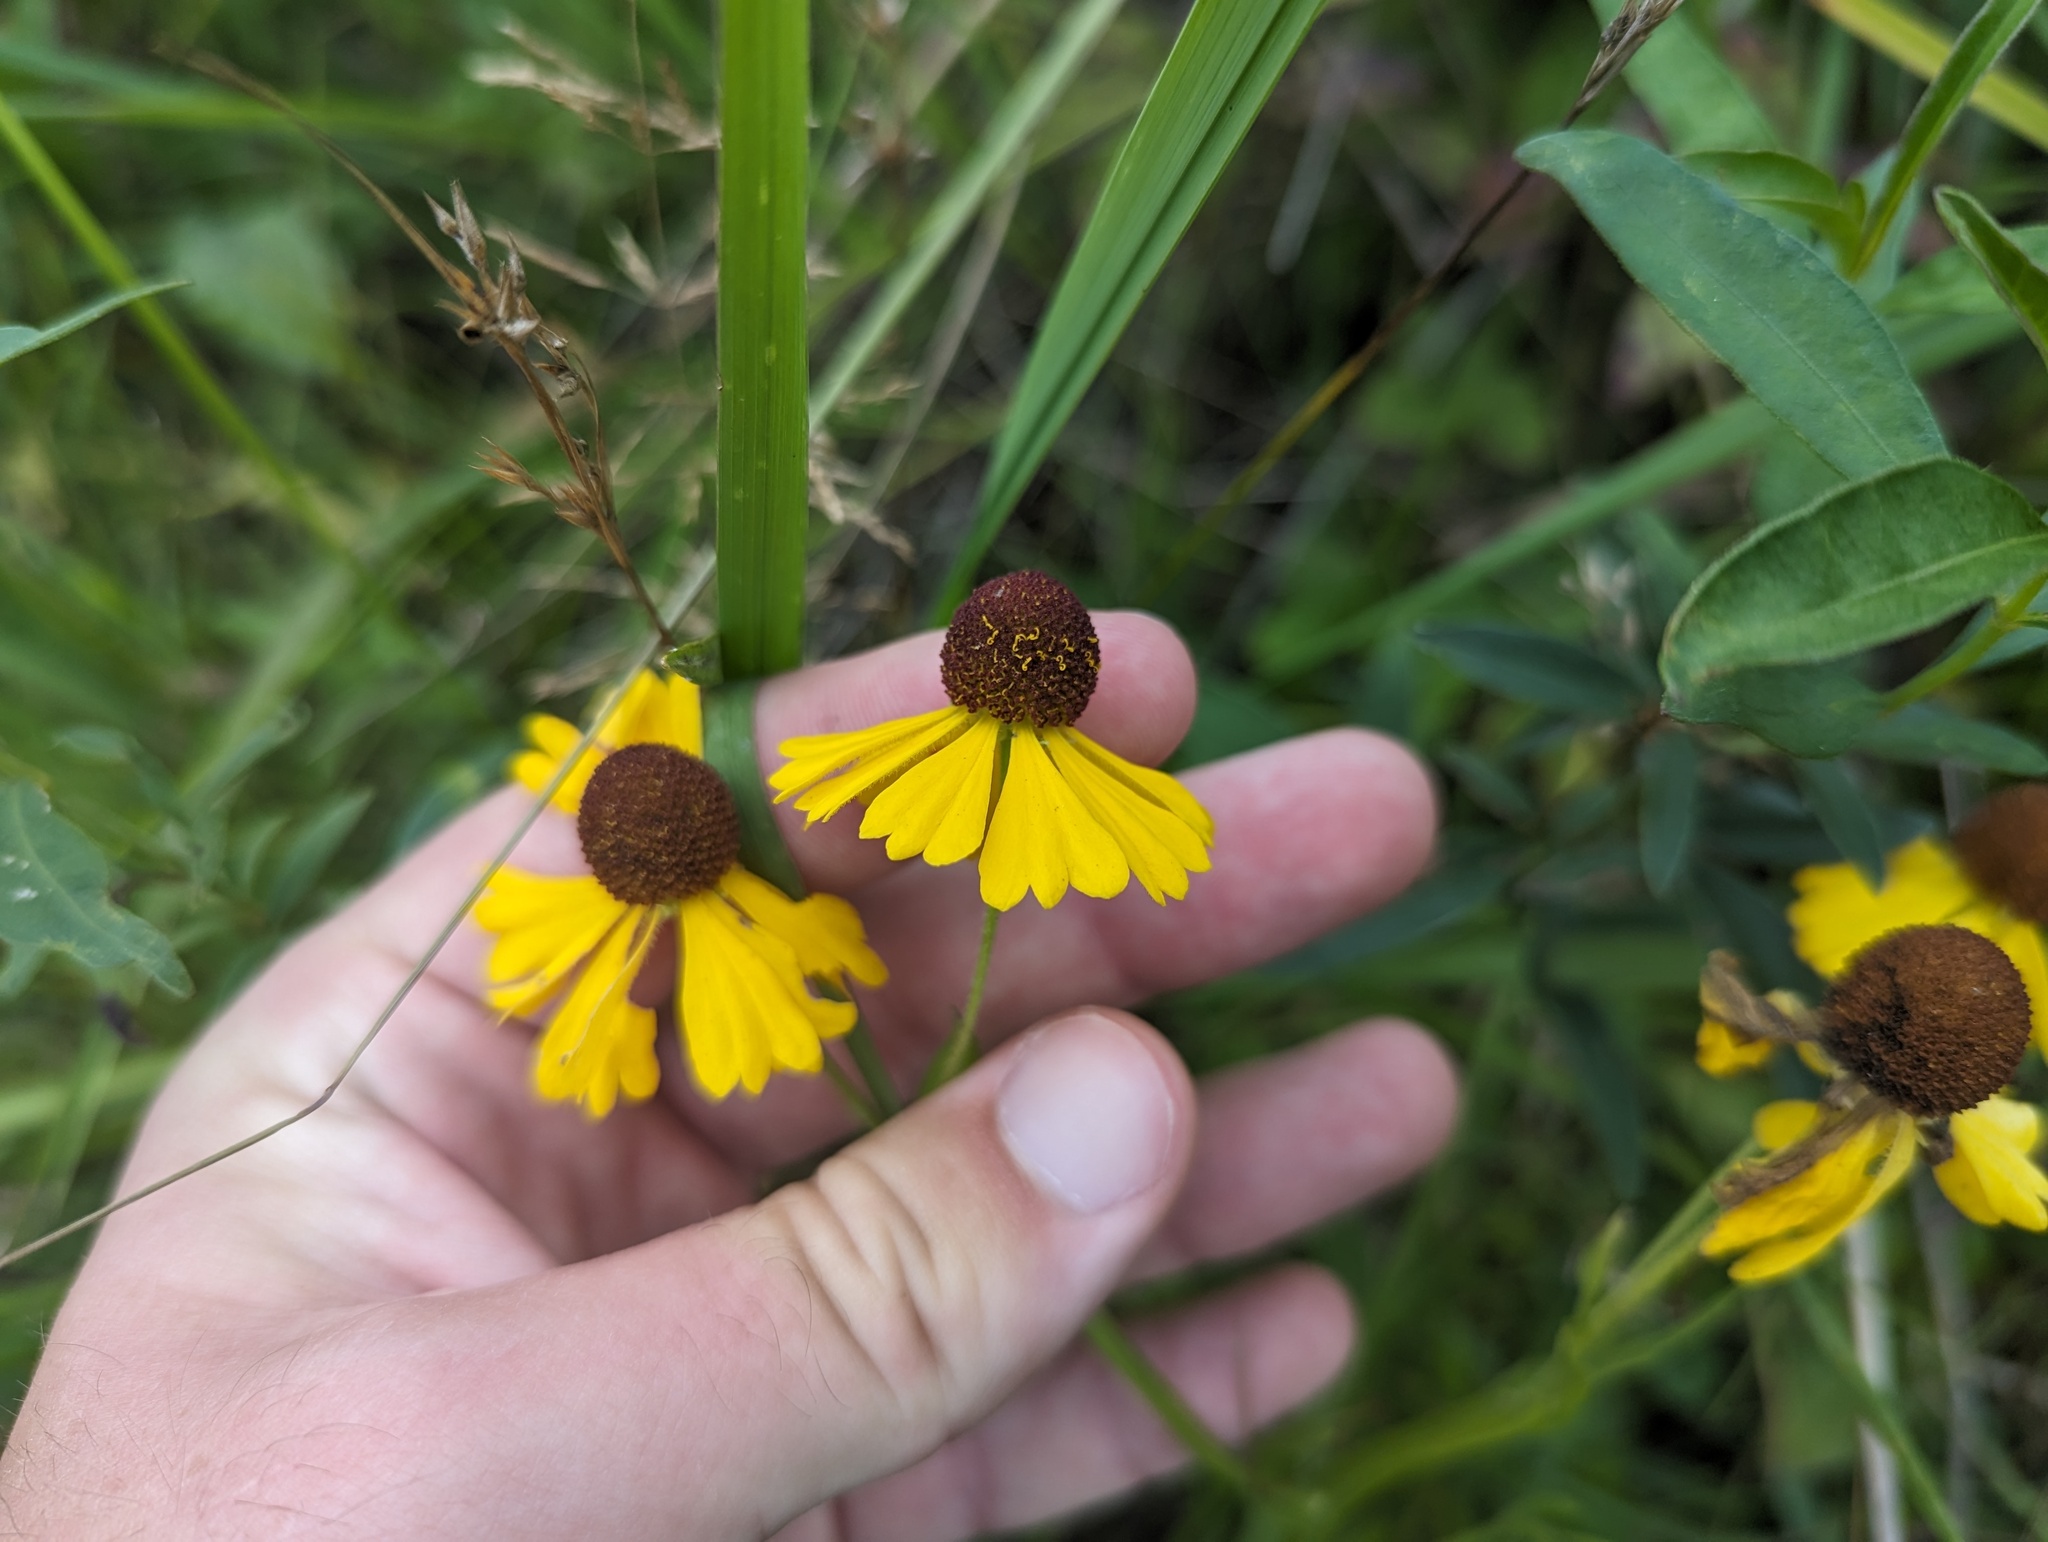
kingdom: Plantae
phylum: Tracheophyta
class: Magnoliopsida
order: Asterales
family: Asteraceae
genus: Helenium
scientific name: Helenium flexuosum
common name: Naked-flowered sneezeweed
